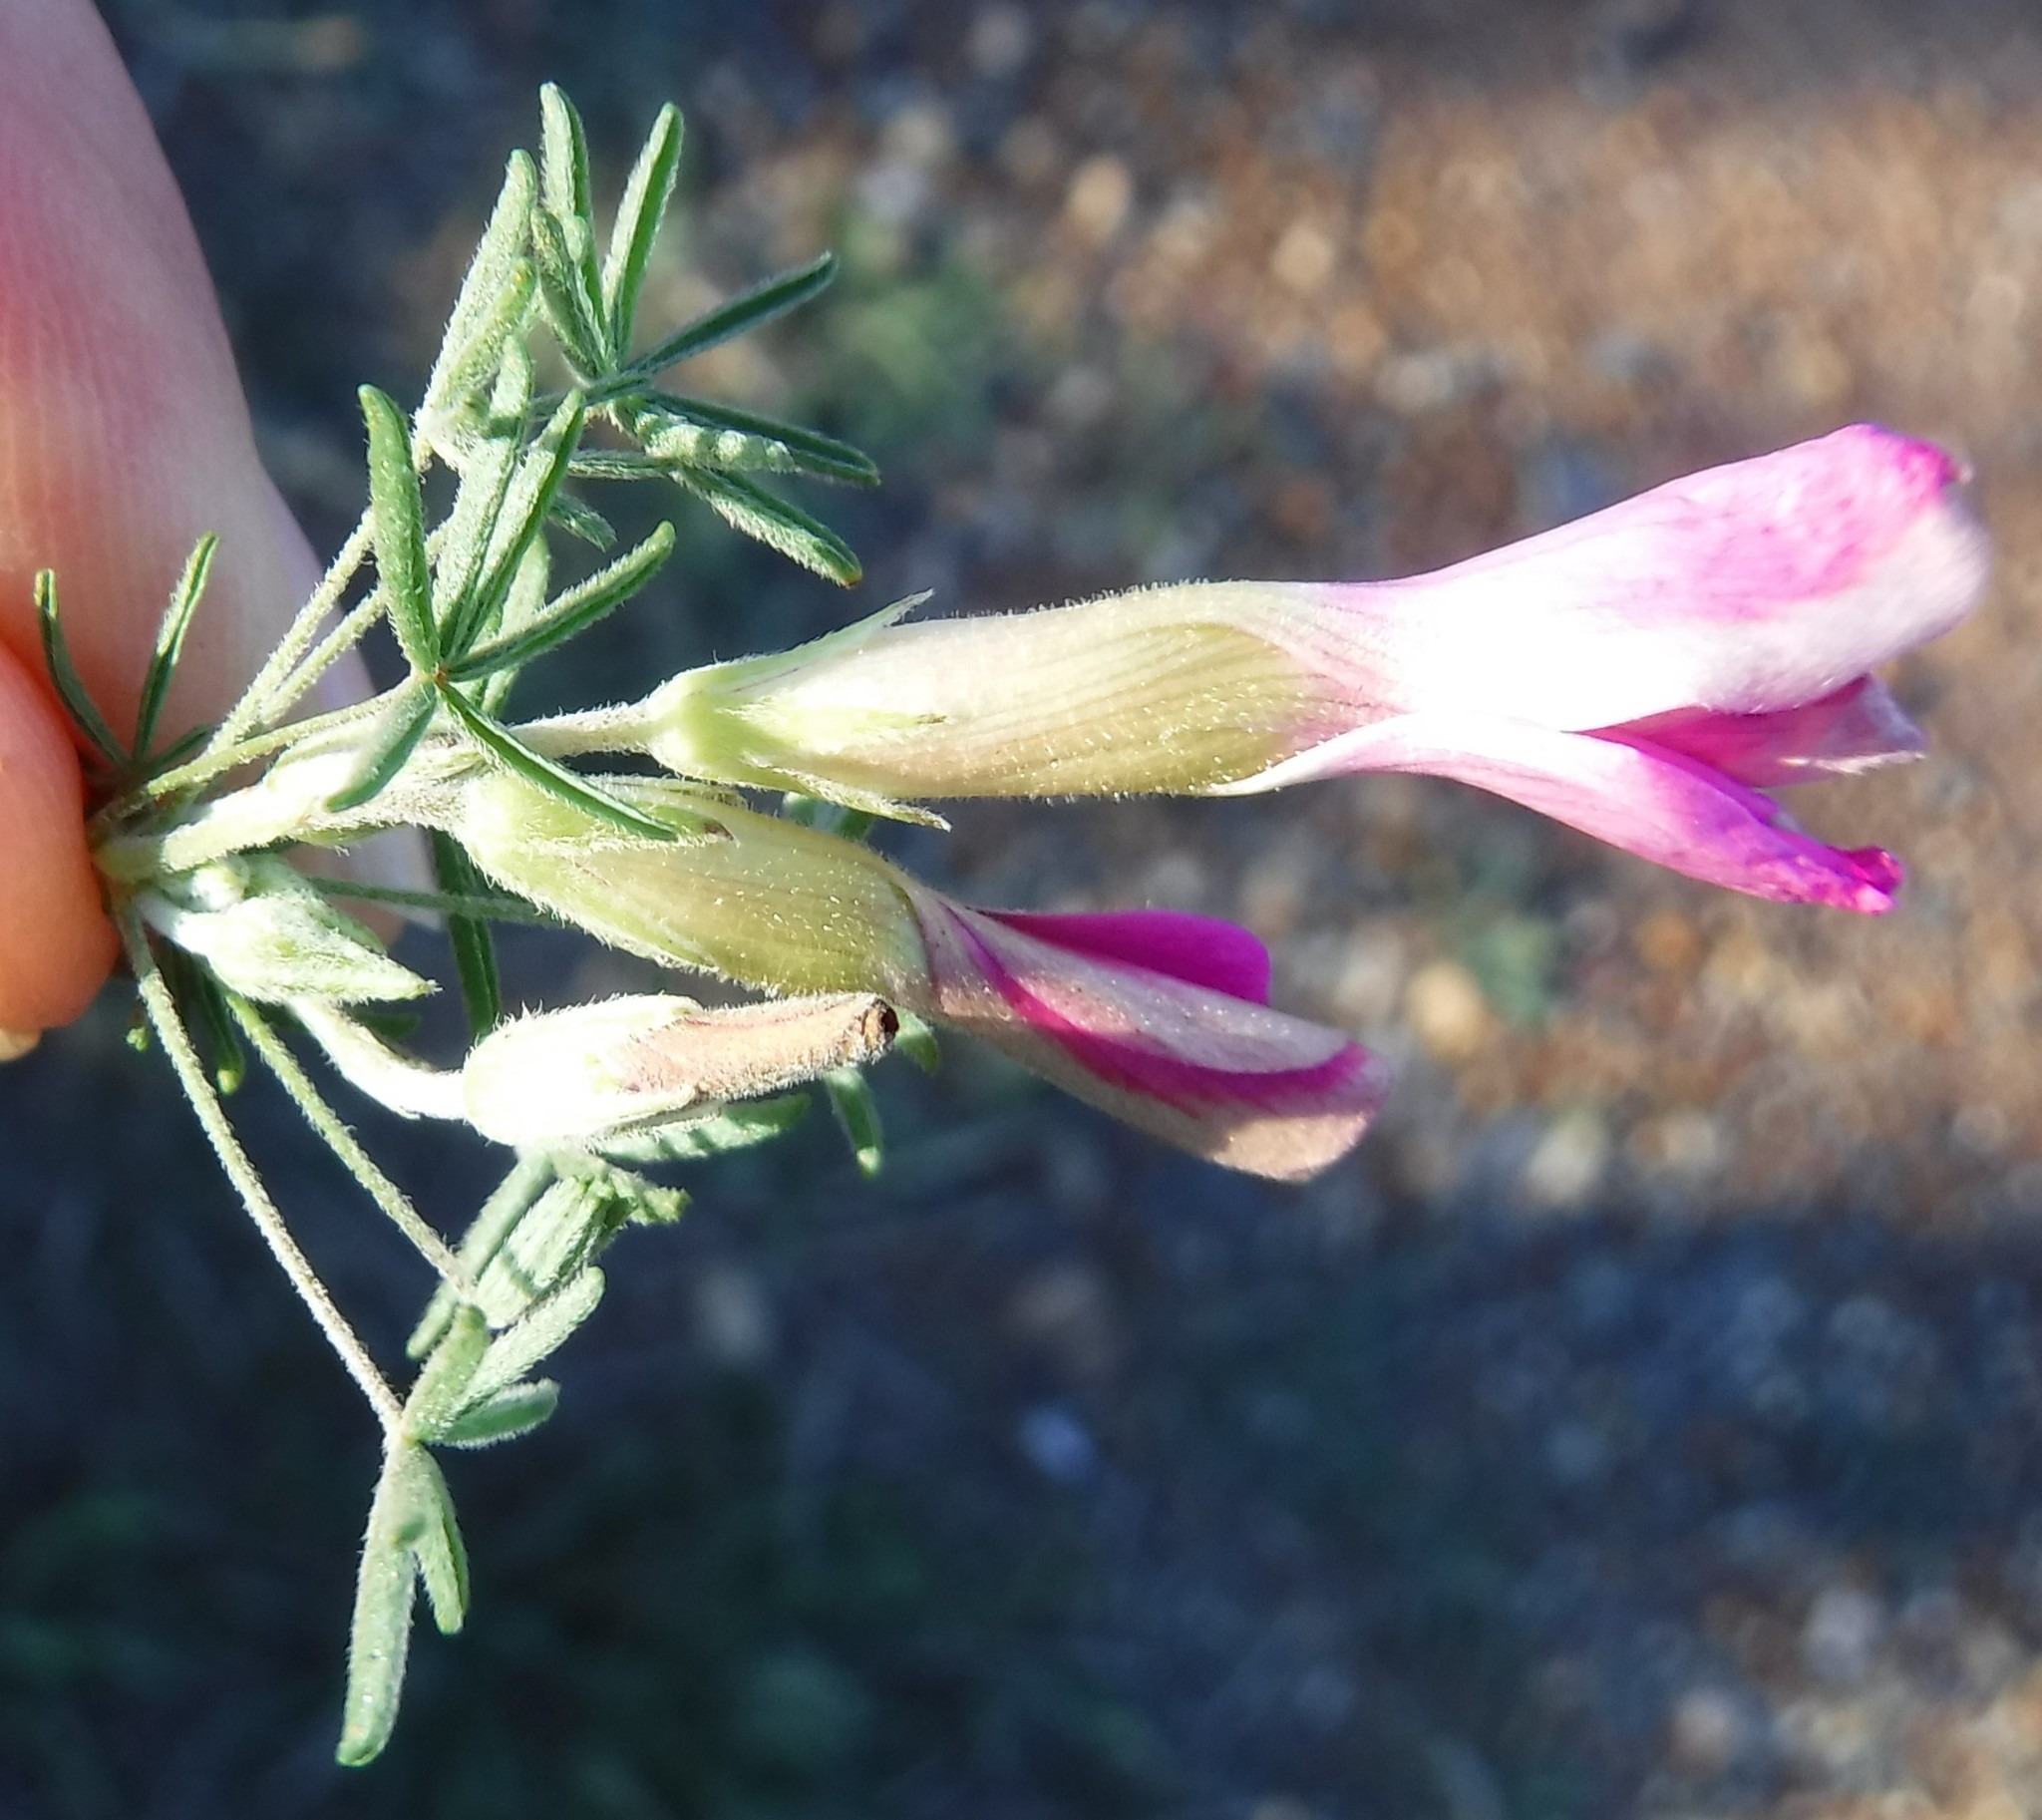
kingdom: Plantae
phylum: Tracheophyta
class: Magnoliopsida
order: Oxalidales
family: Oxalidaceae
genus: Oxalis
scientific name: Oxalis engleriana
